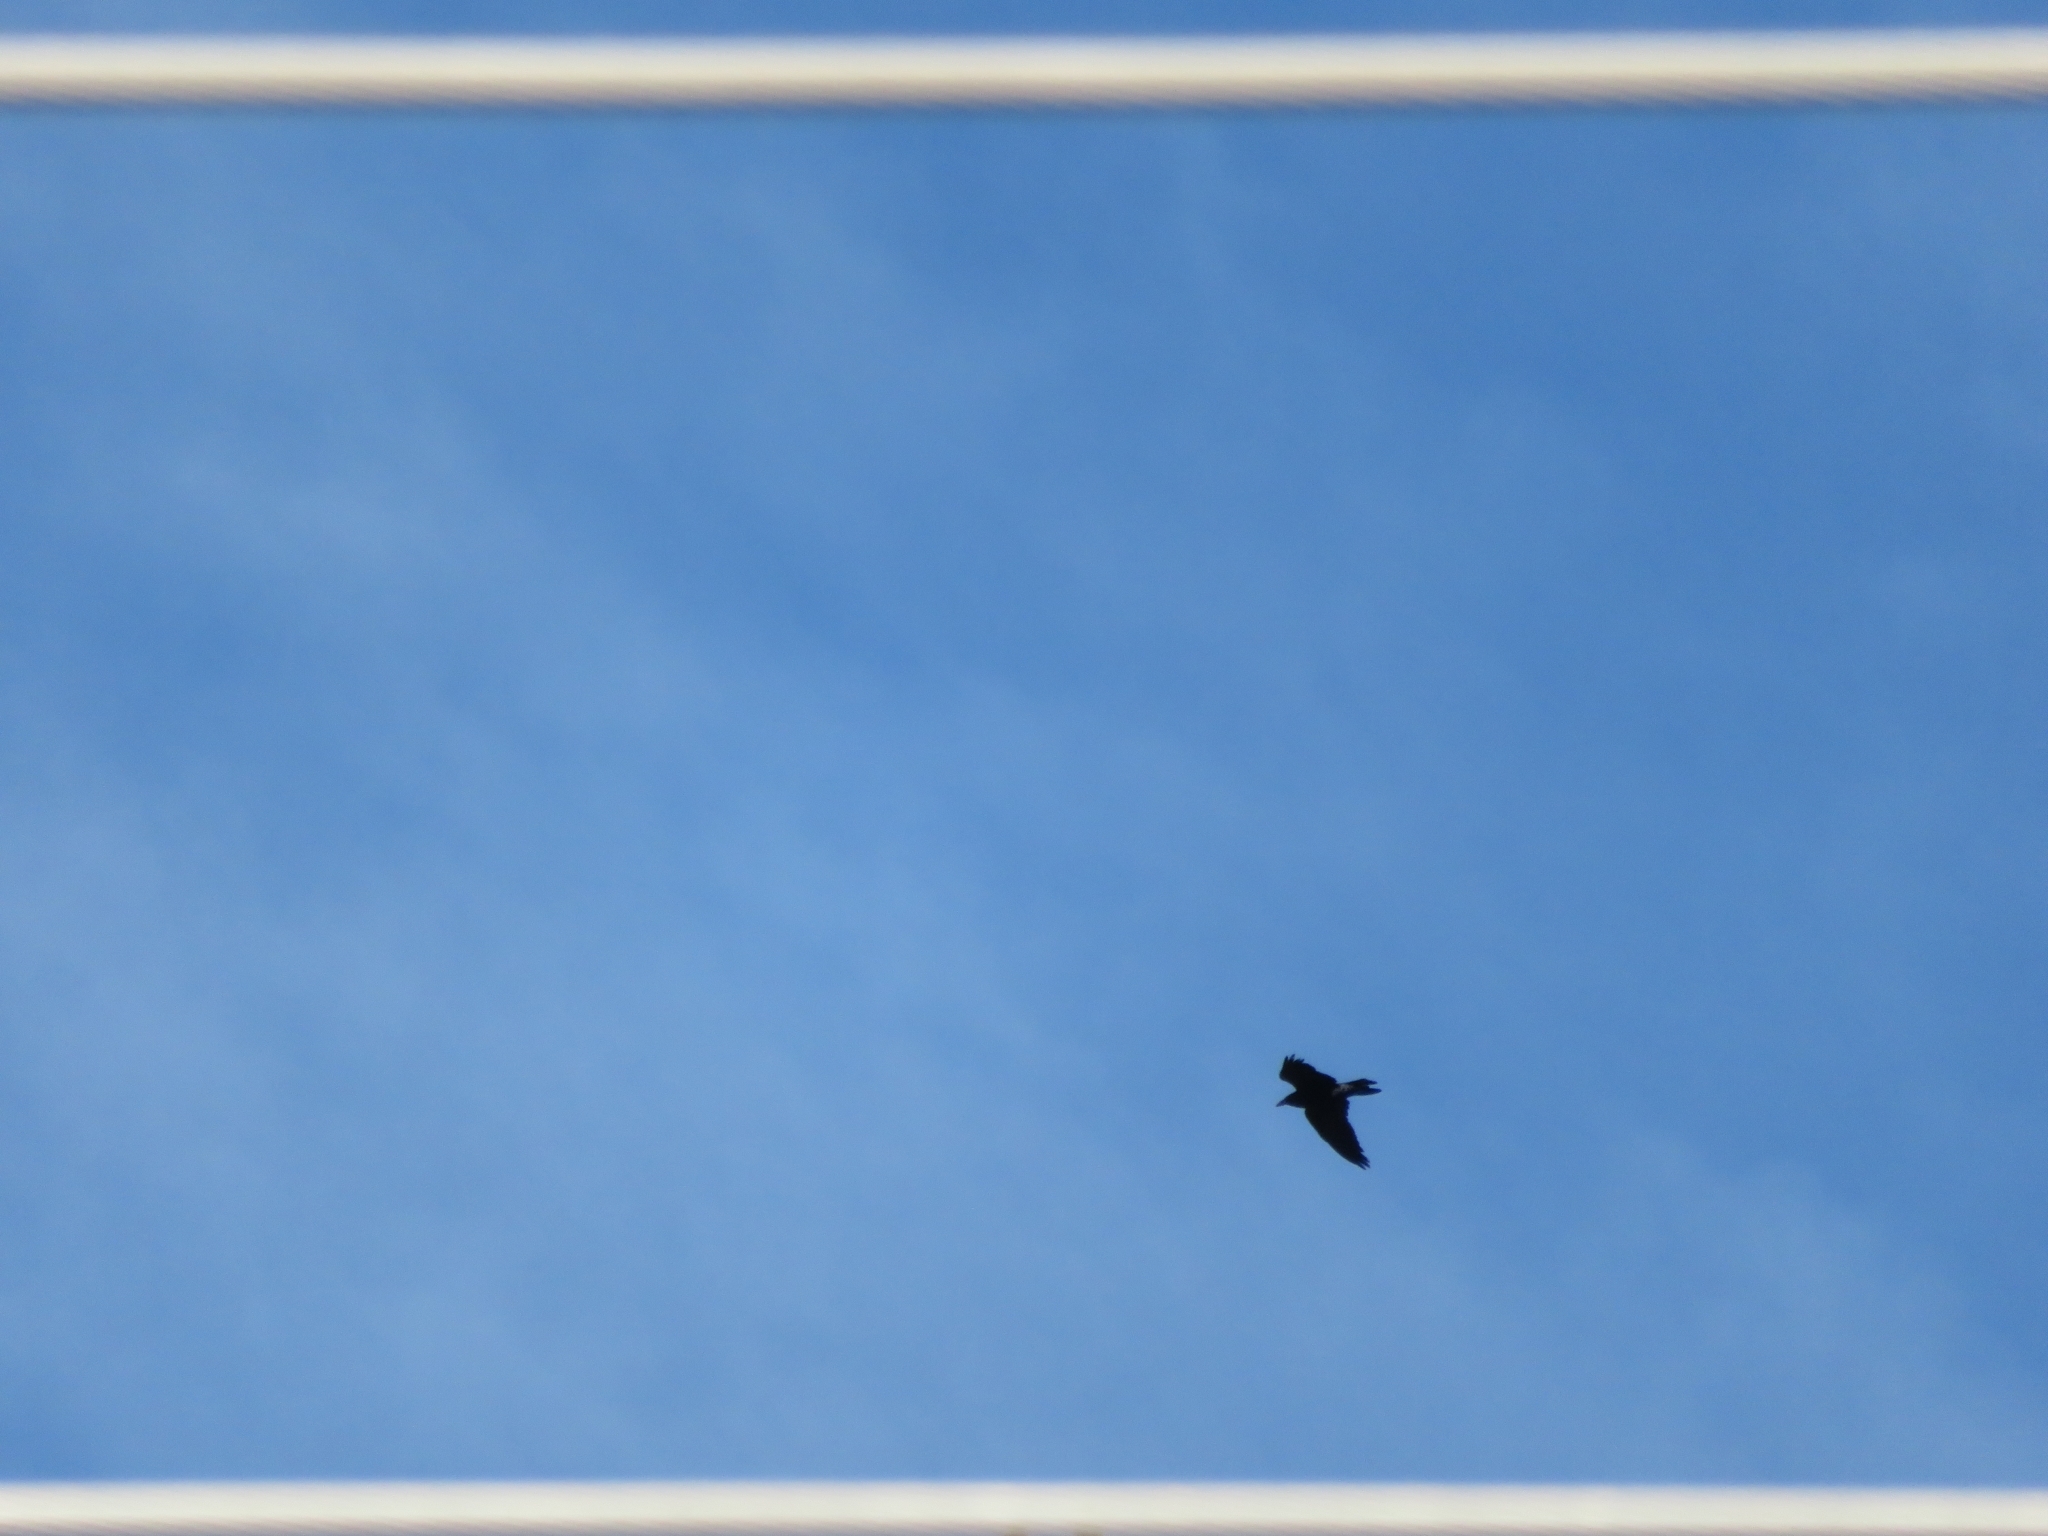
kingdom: Animalia
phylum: Chordata
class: Aves
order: Passeriformes
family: Corvidae
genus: Corvus
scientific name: Corvus corax
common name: Common raven
